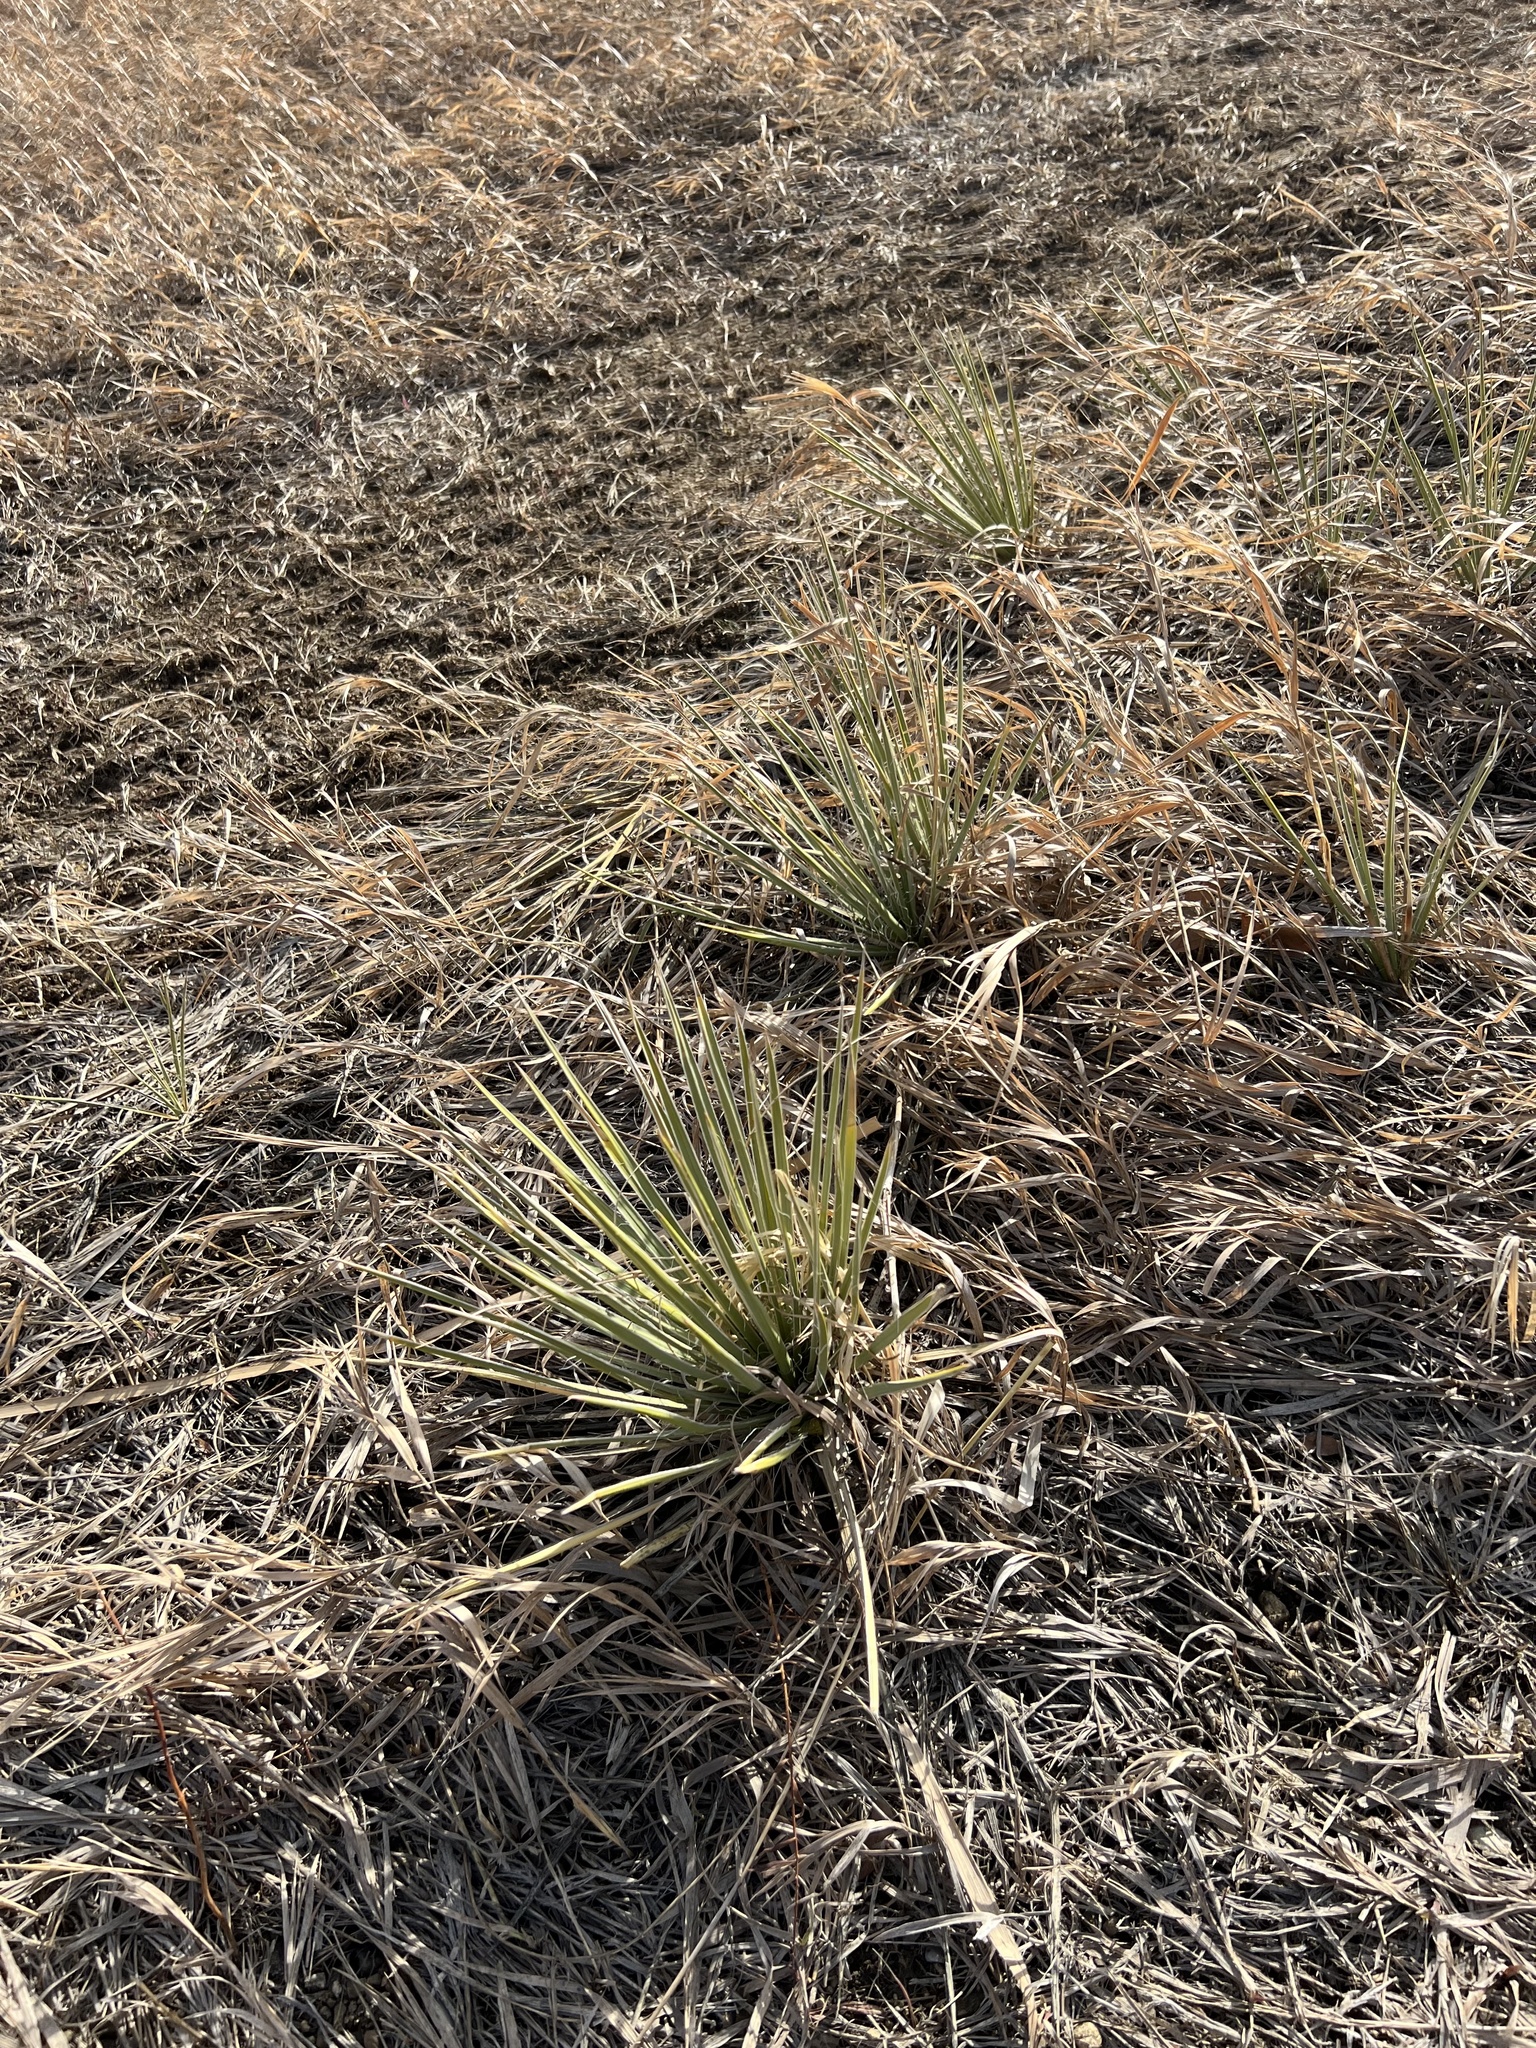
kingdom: Plantae
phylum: Tracheophyta
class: Liliopsida
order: Asparagales
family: Asparagaceae
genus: Yucca
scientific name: Yucca glauca
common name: Great plains yucca
